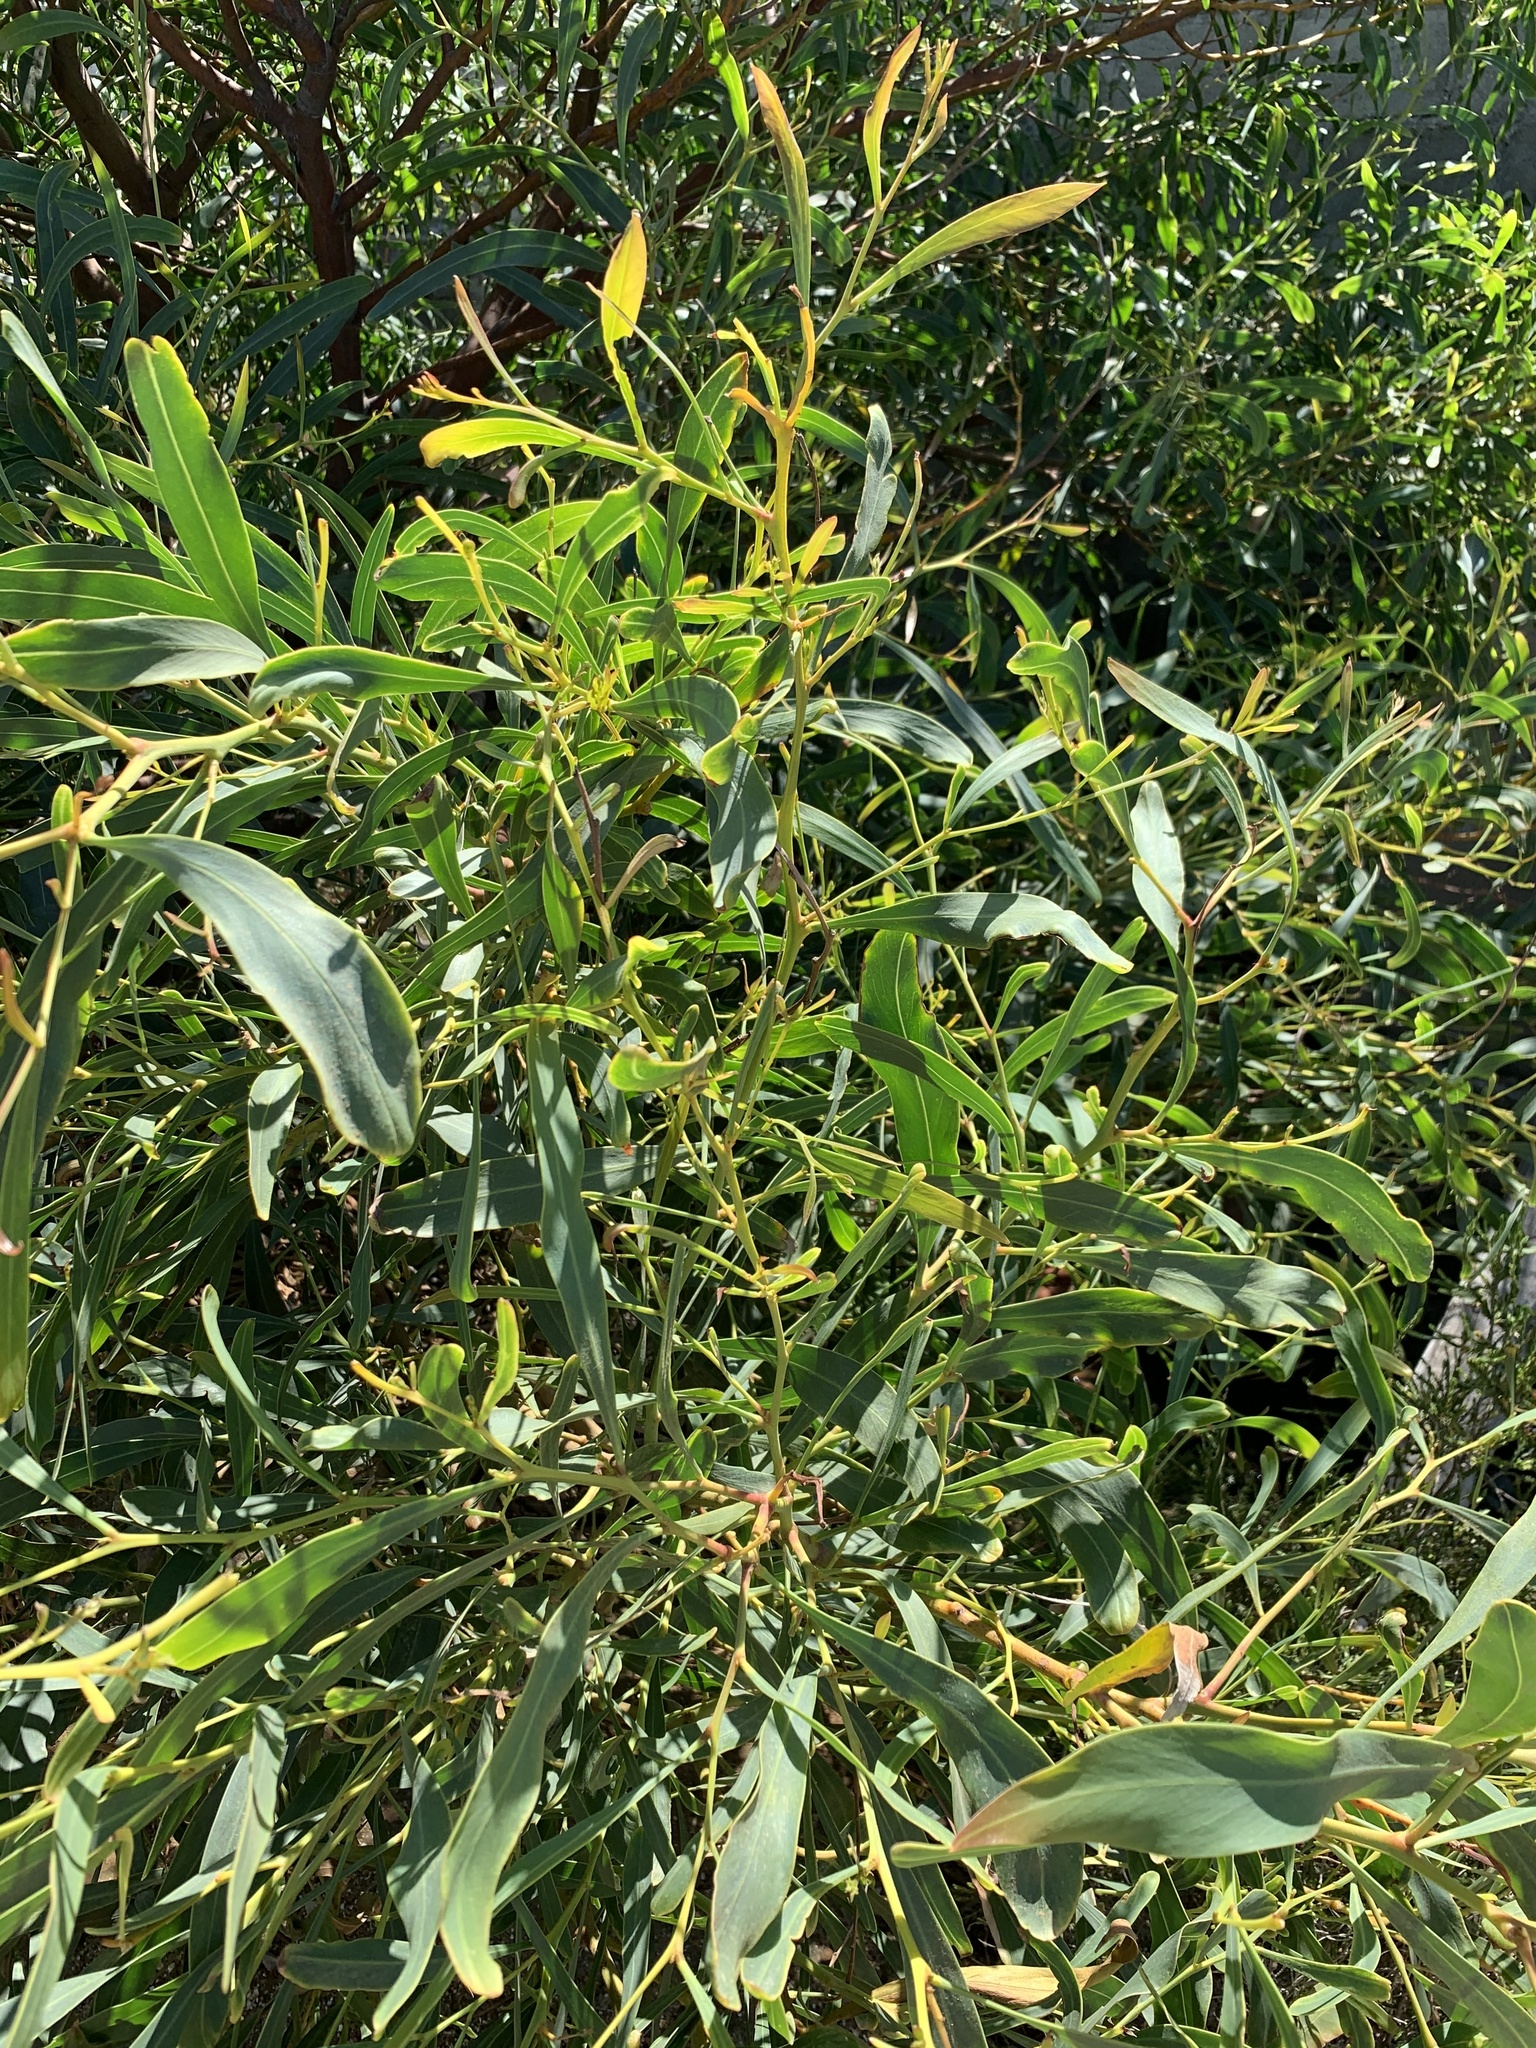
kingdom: Plantae
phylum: Tracheophyta
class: Magnoliopsida
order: Fabales
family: Fabaceae
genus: Acacia
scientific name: Acacia saligna
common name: Orange wattle
